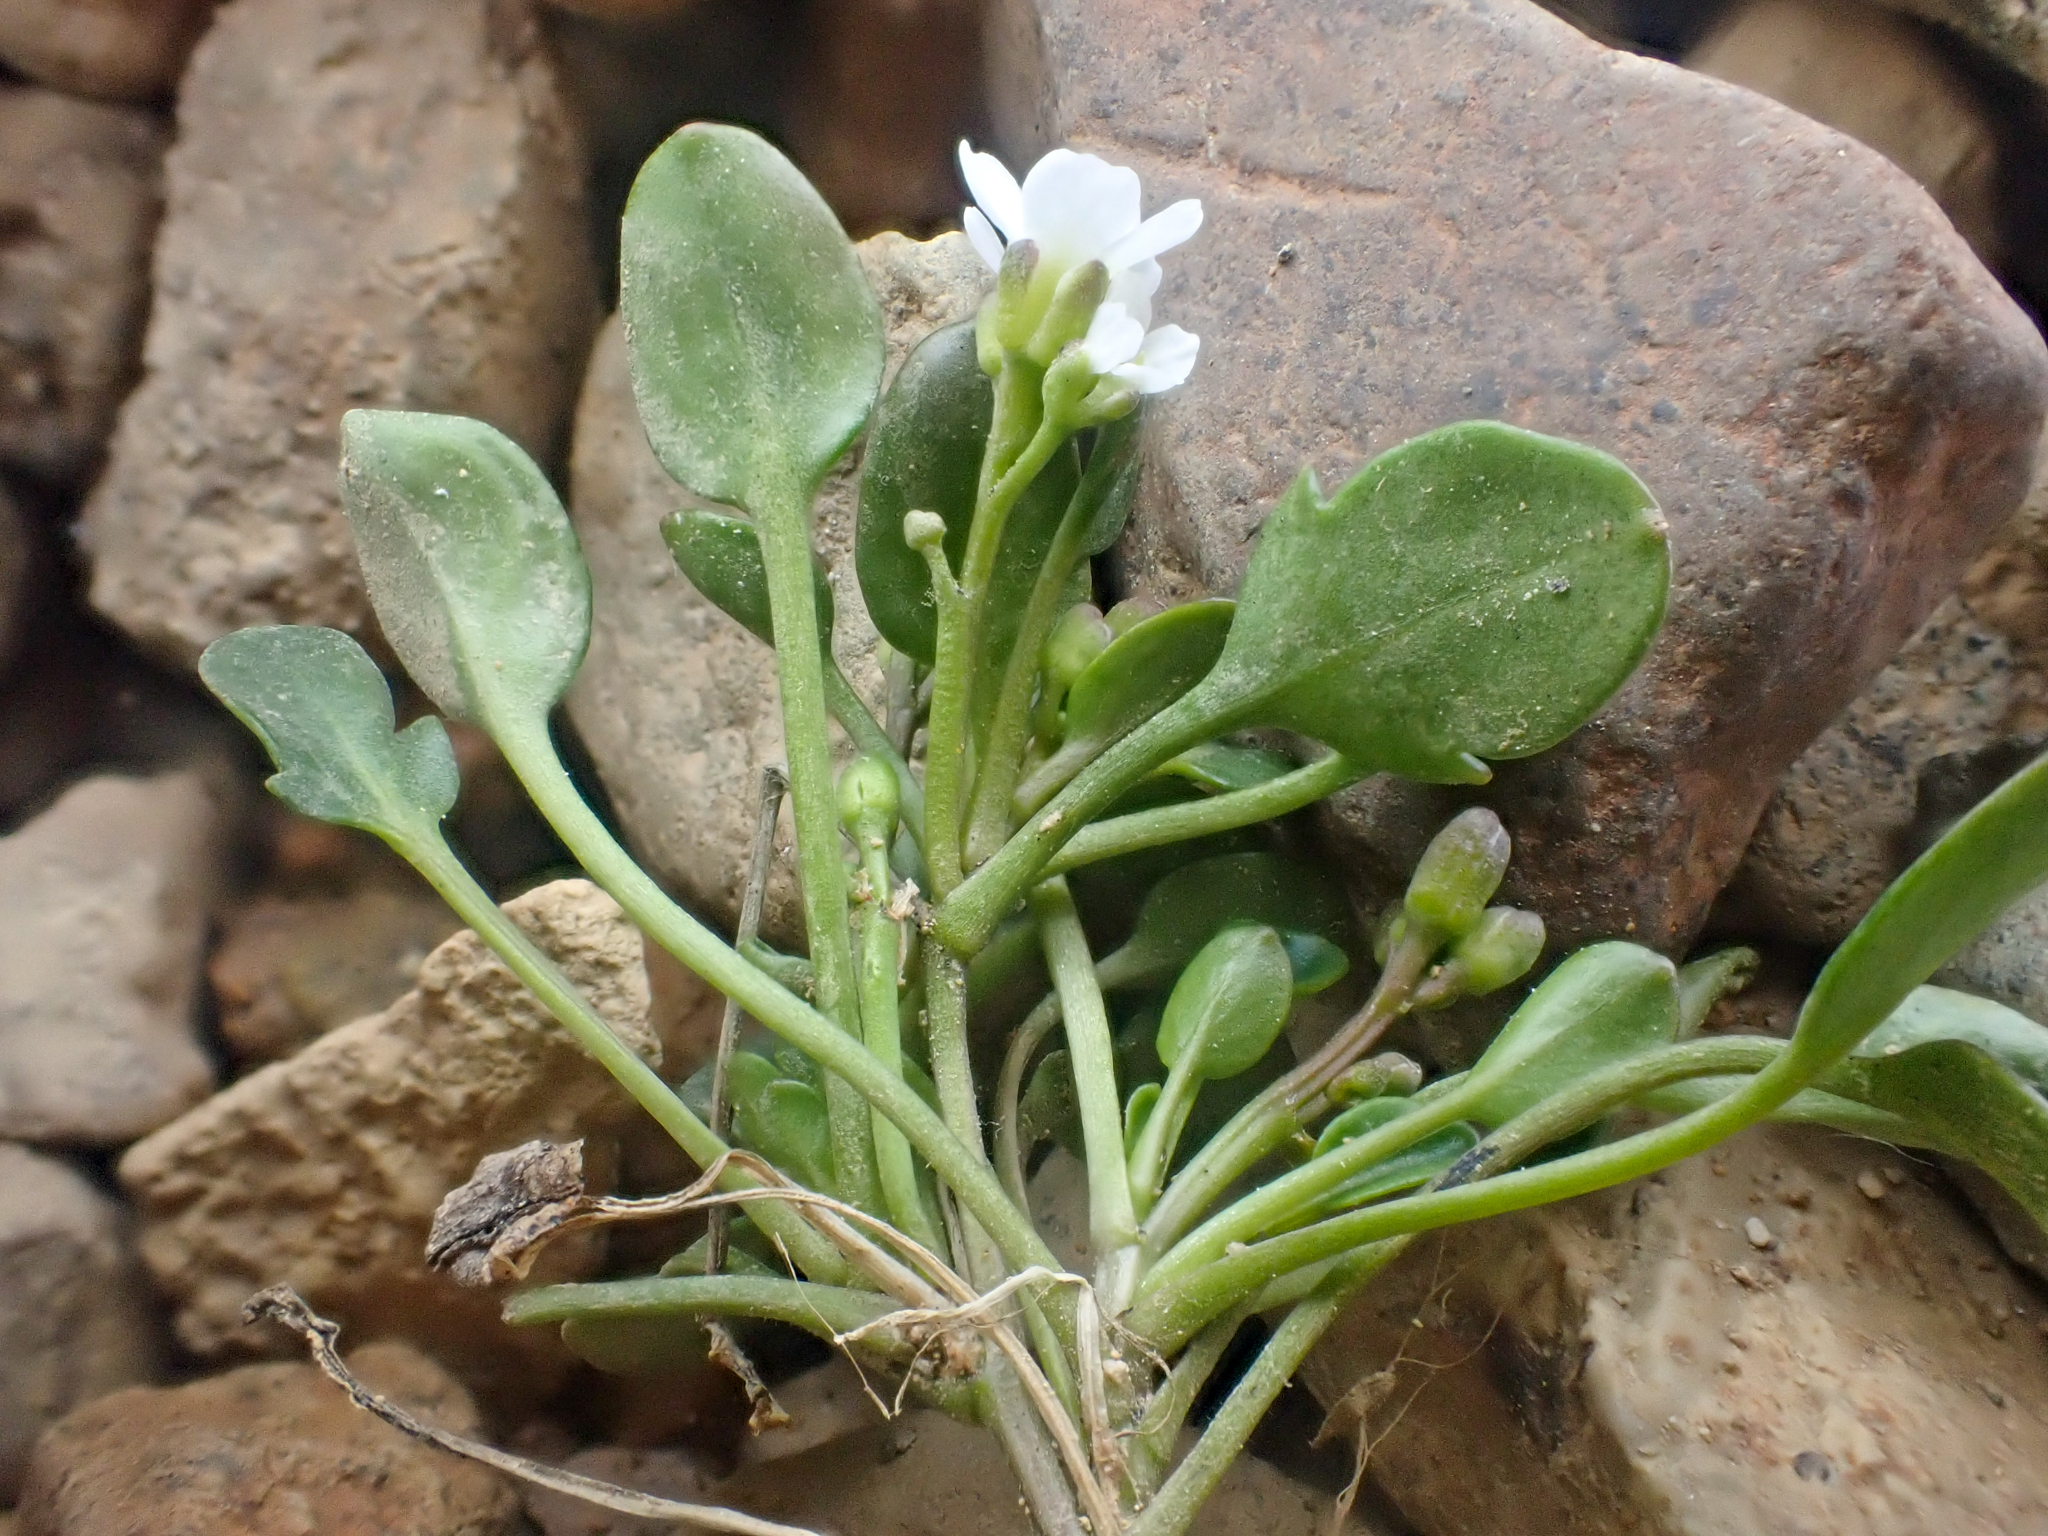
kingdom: Plantae
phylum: Tracheophyta
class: Magnoliopsida
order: Brassicales
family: Brassicaceae
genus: Cardamine
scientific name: Cardamine bellidifolia
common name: Alpine bittercress
